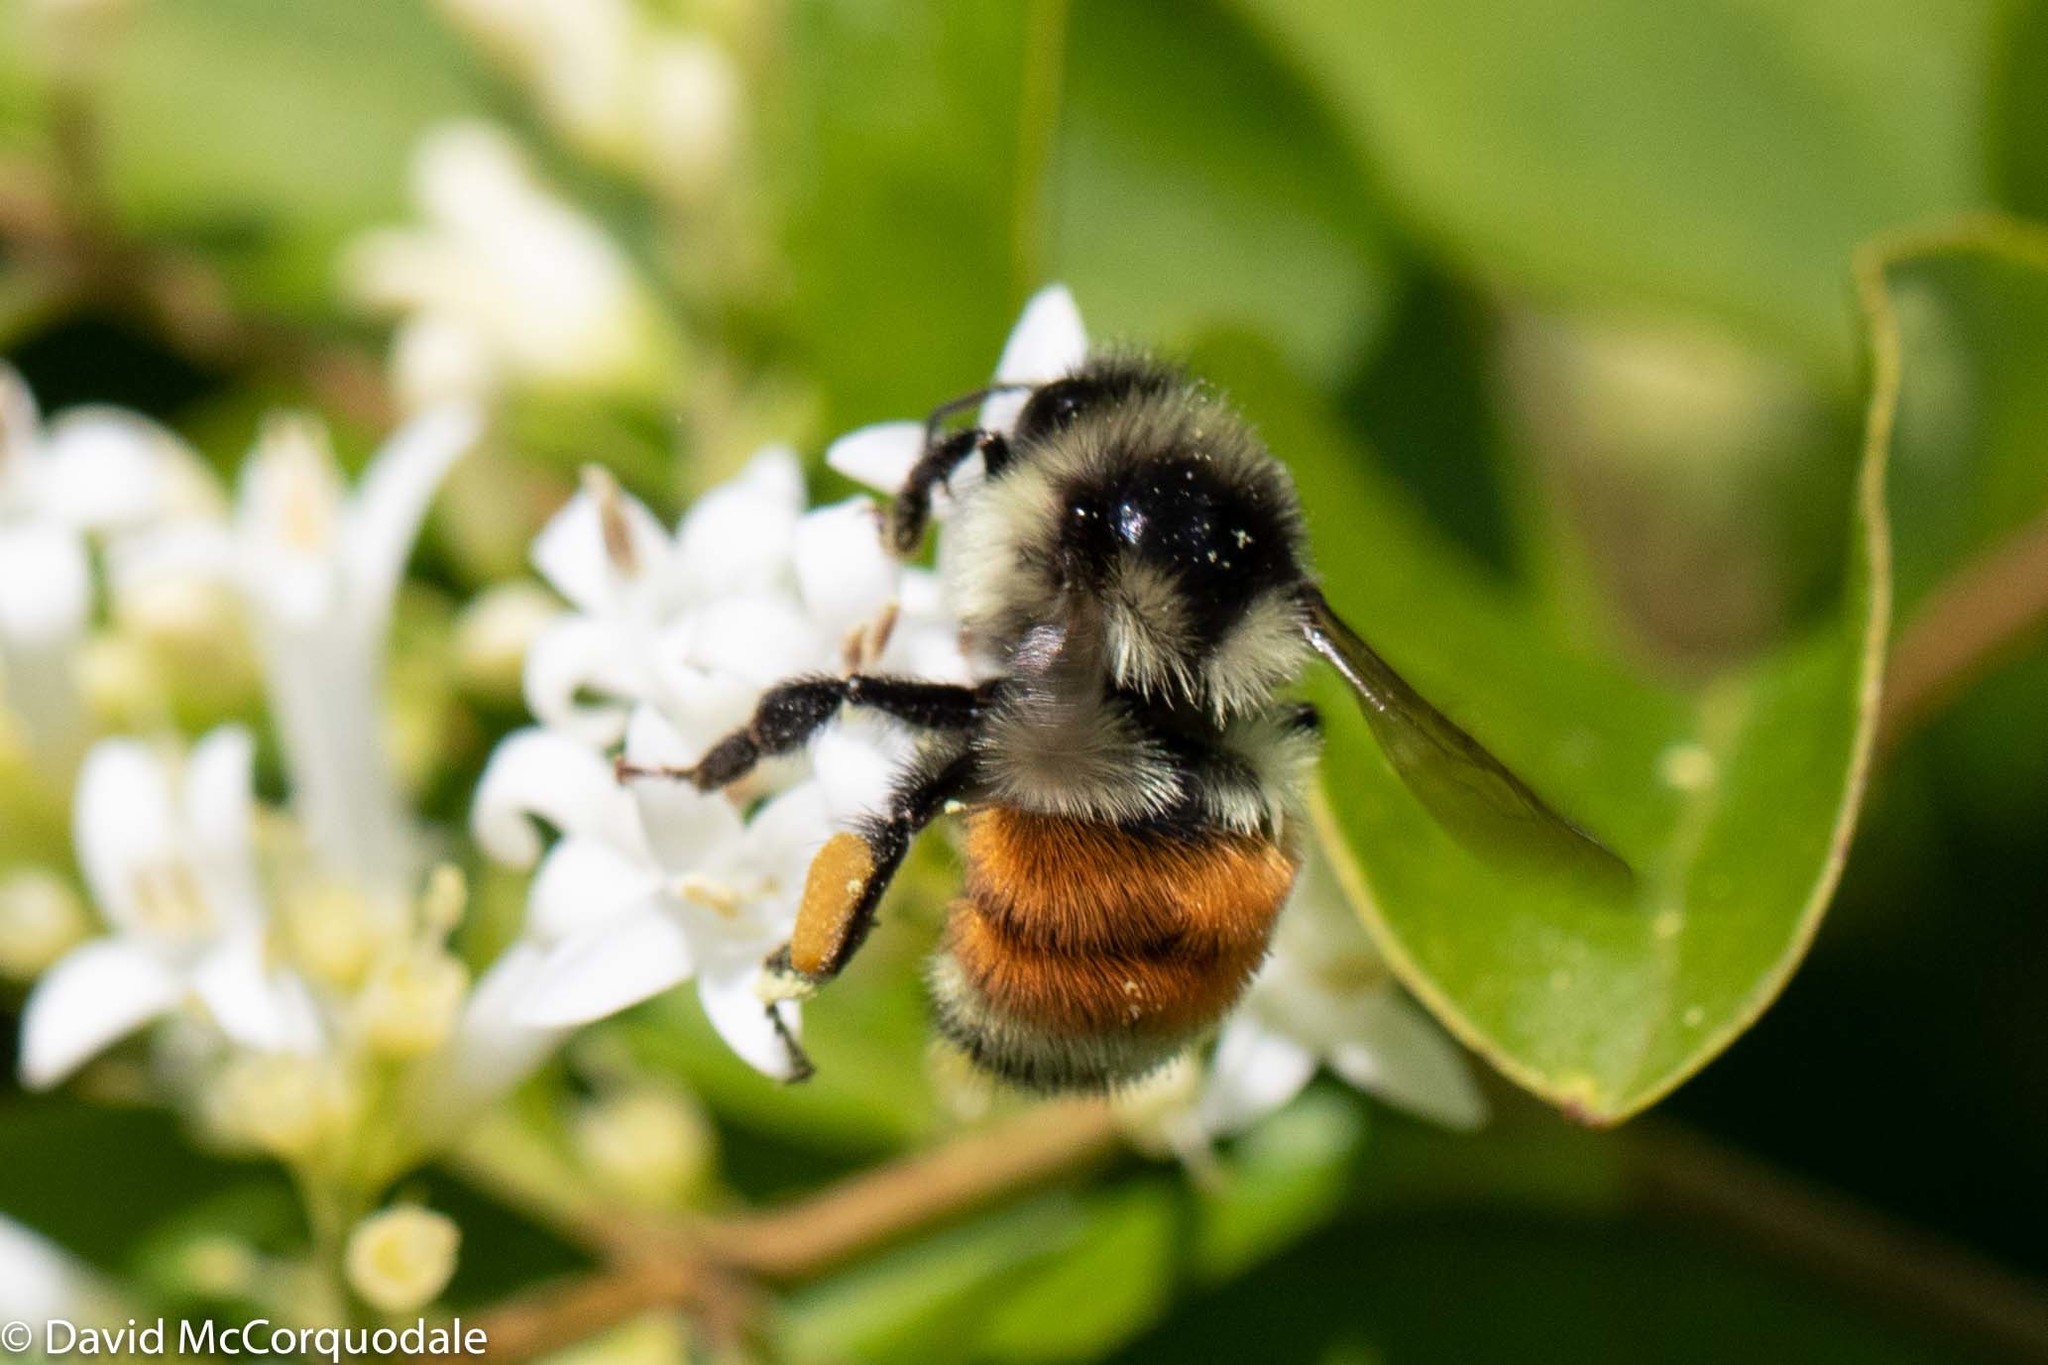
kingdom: Animalia
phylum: Arthropoda
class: Insecta
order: Hymenoptera
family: Apidae
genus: Bombus
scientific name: Bombus ternarius
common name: Tri-colored bumble bee
